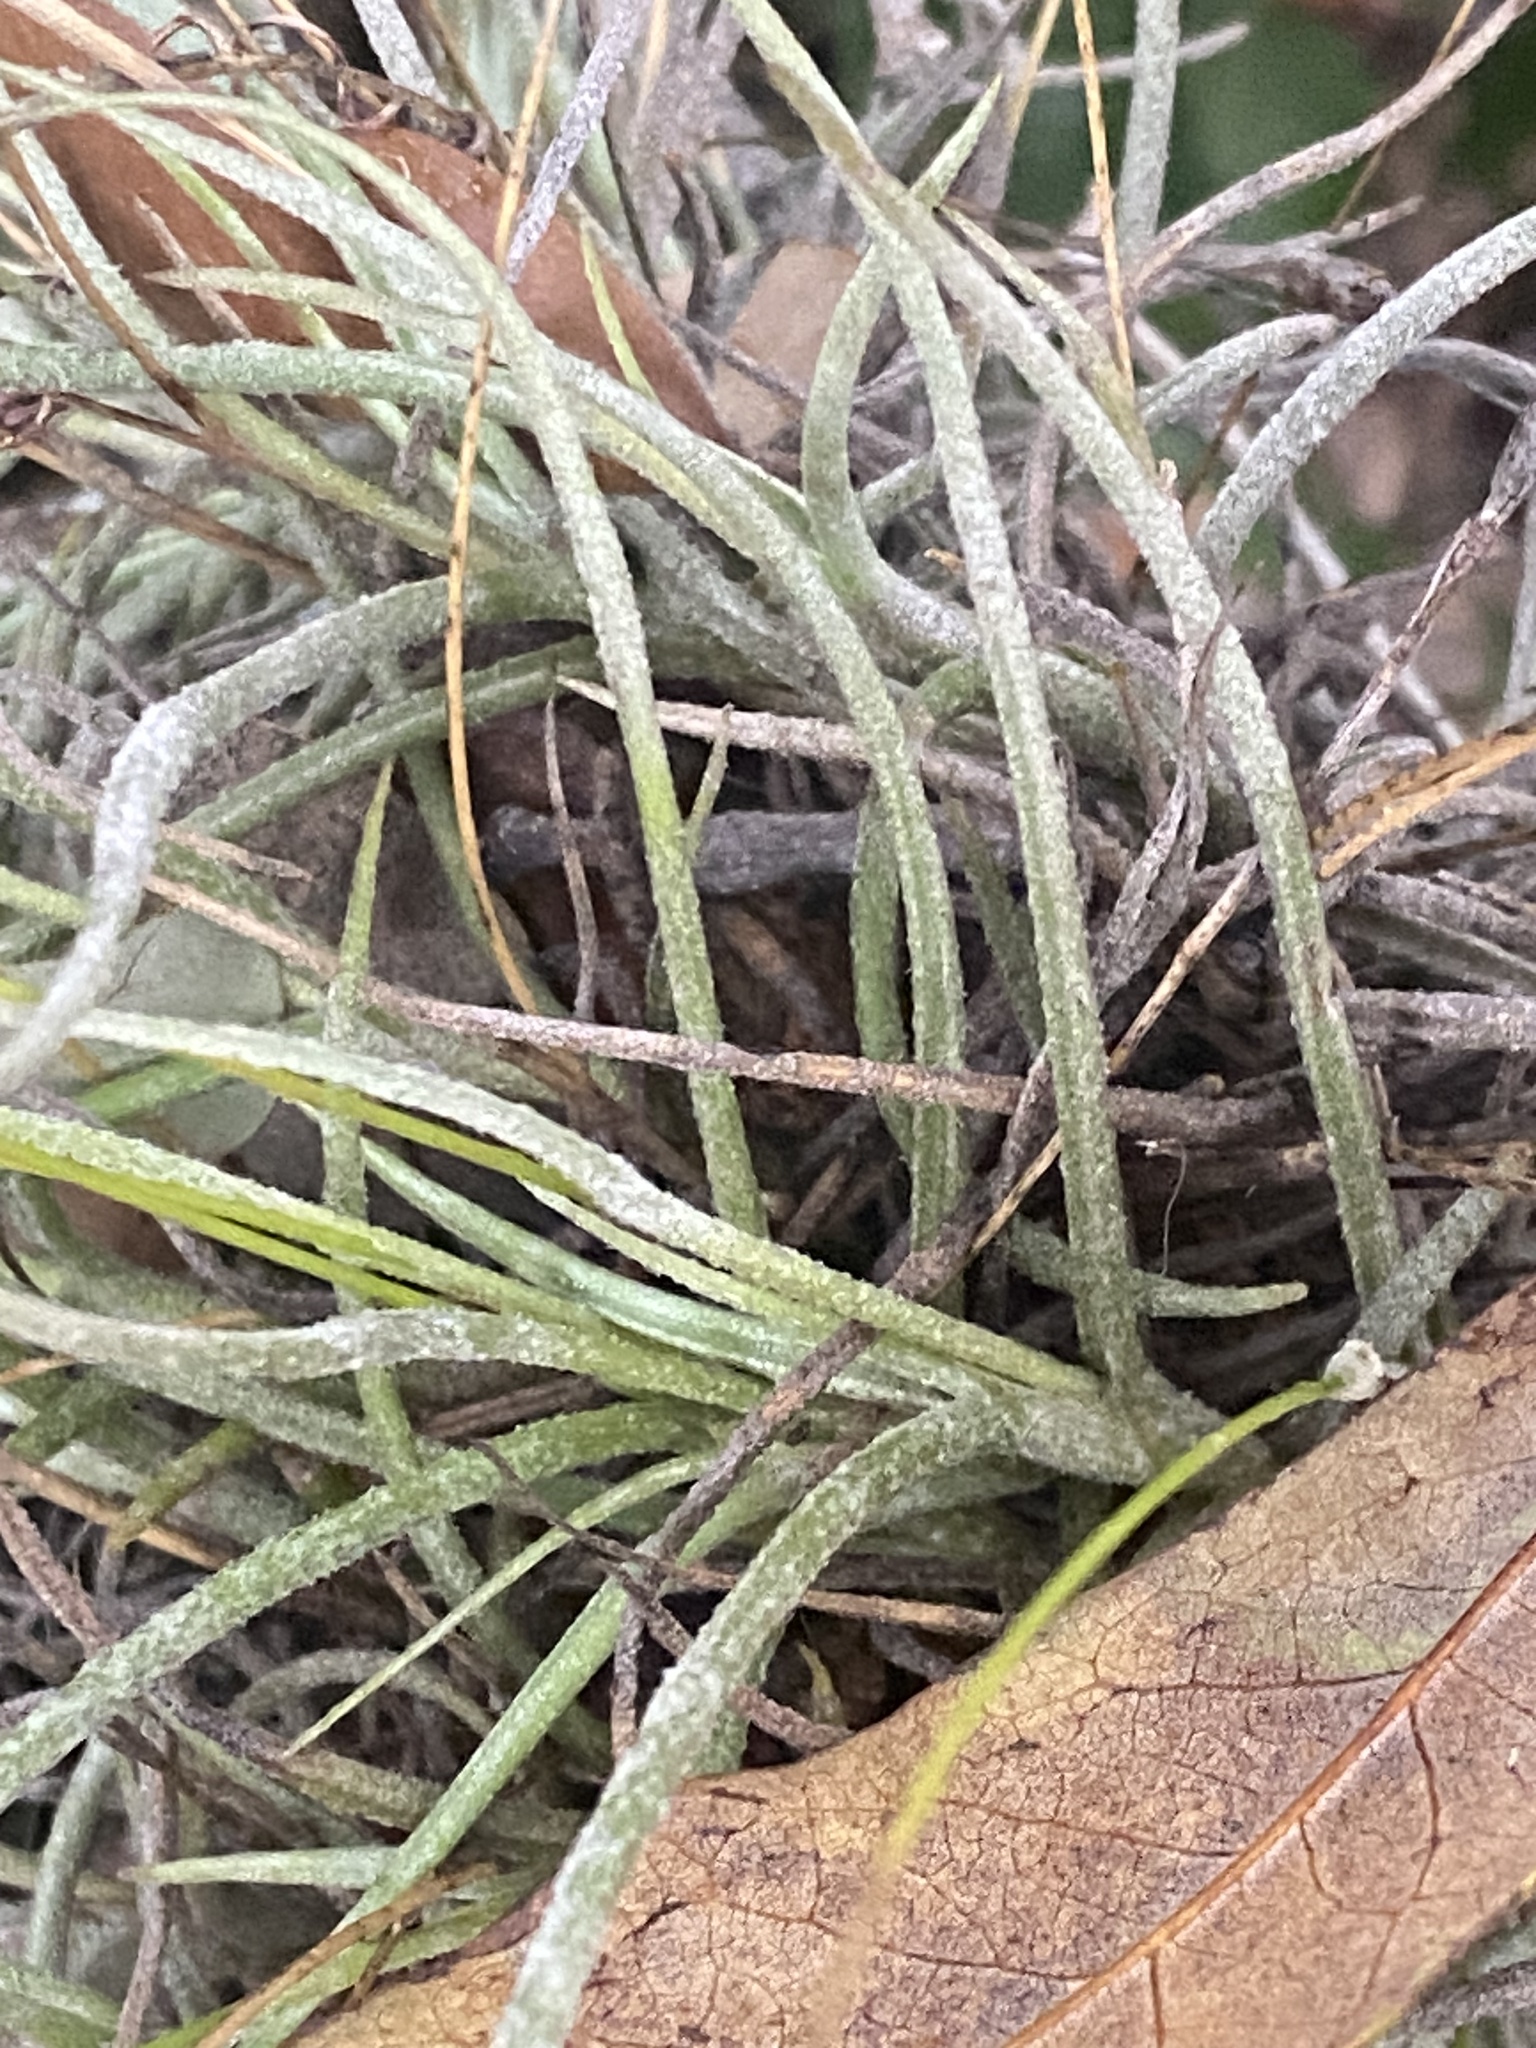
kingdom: Plantae
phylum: Tracheophyta
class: Liliopsida
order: Poales
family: Bromeliaceae
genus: Tillandsia
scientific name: Tillandsia recurvata
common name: Small ballmoss
